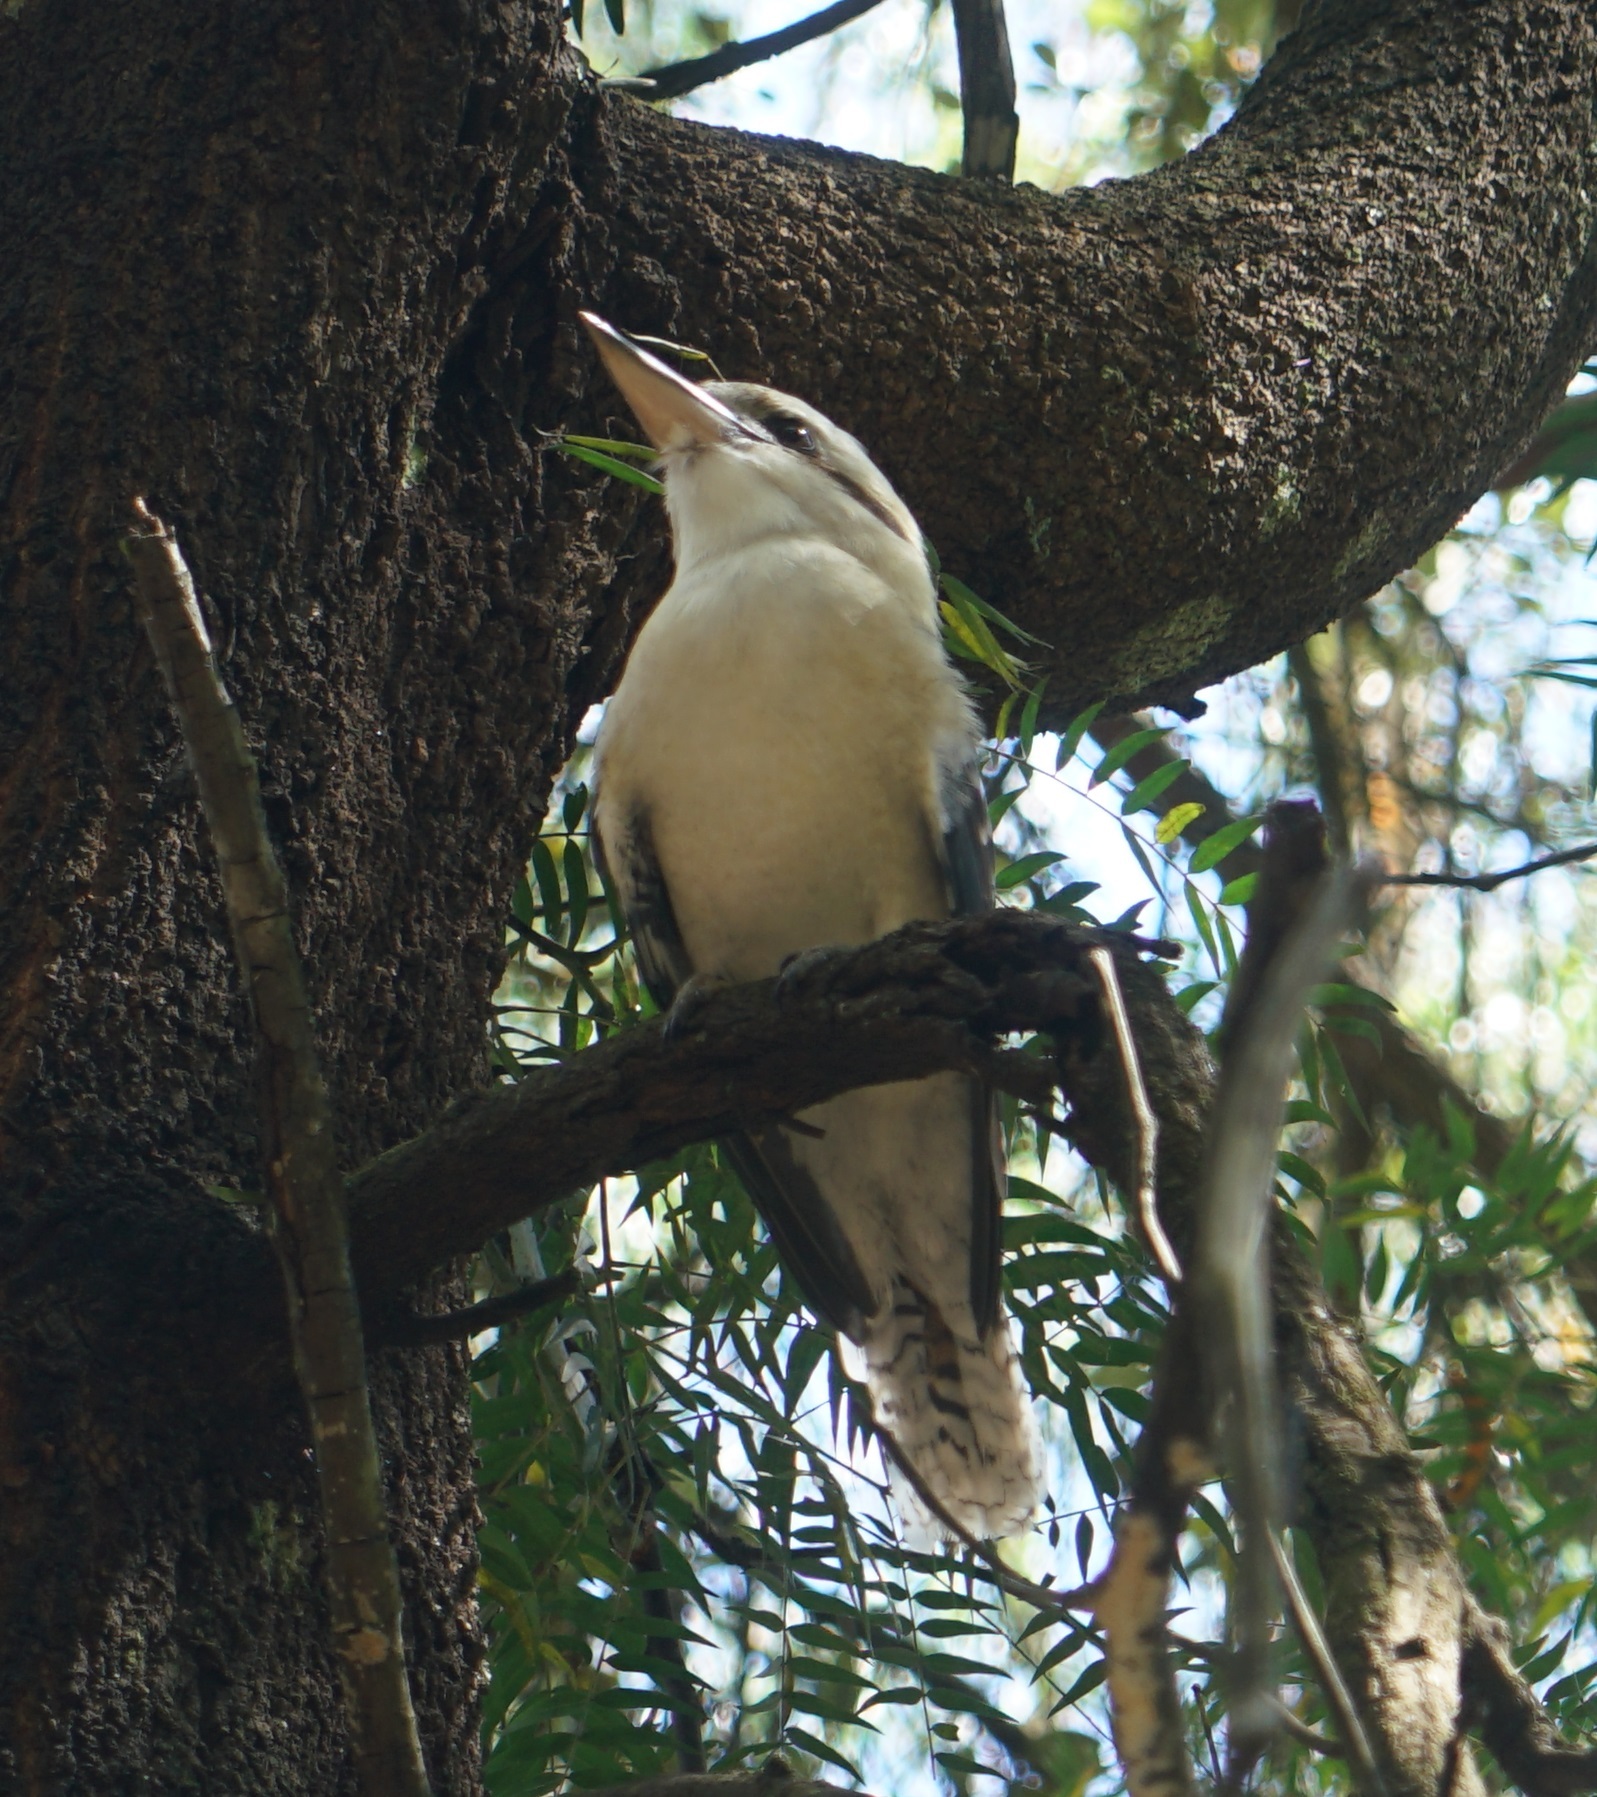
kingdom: Animalia
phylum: Chordata
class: Aves
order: Coraciiformes
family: Alcedinidae
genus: Dacelo
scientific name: Dacelo novaeguineae
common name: Laughing kookaburra
